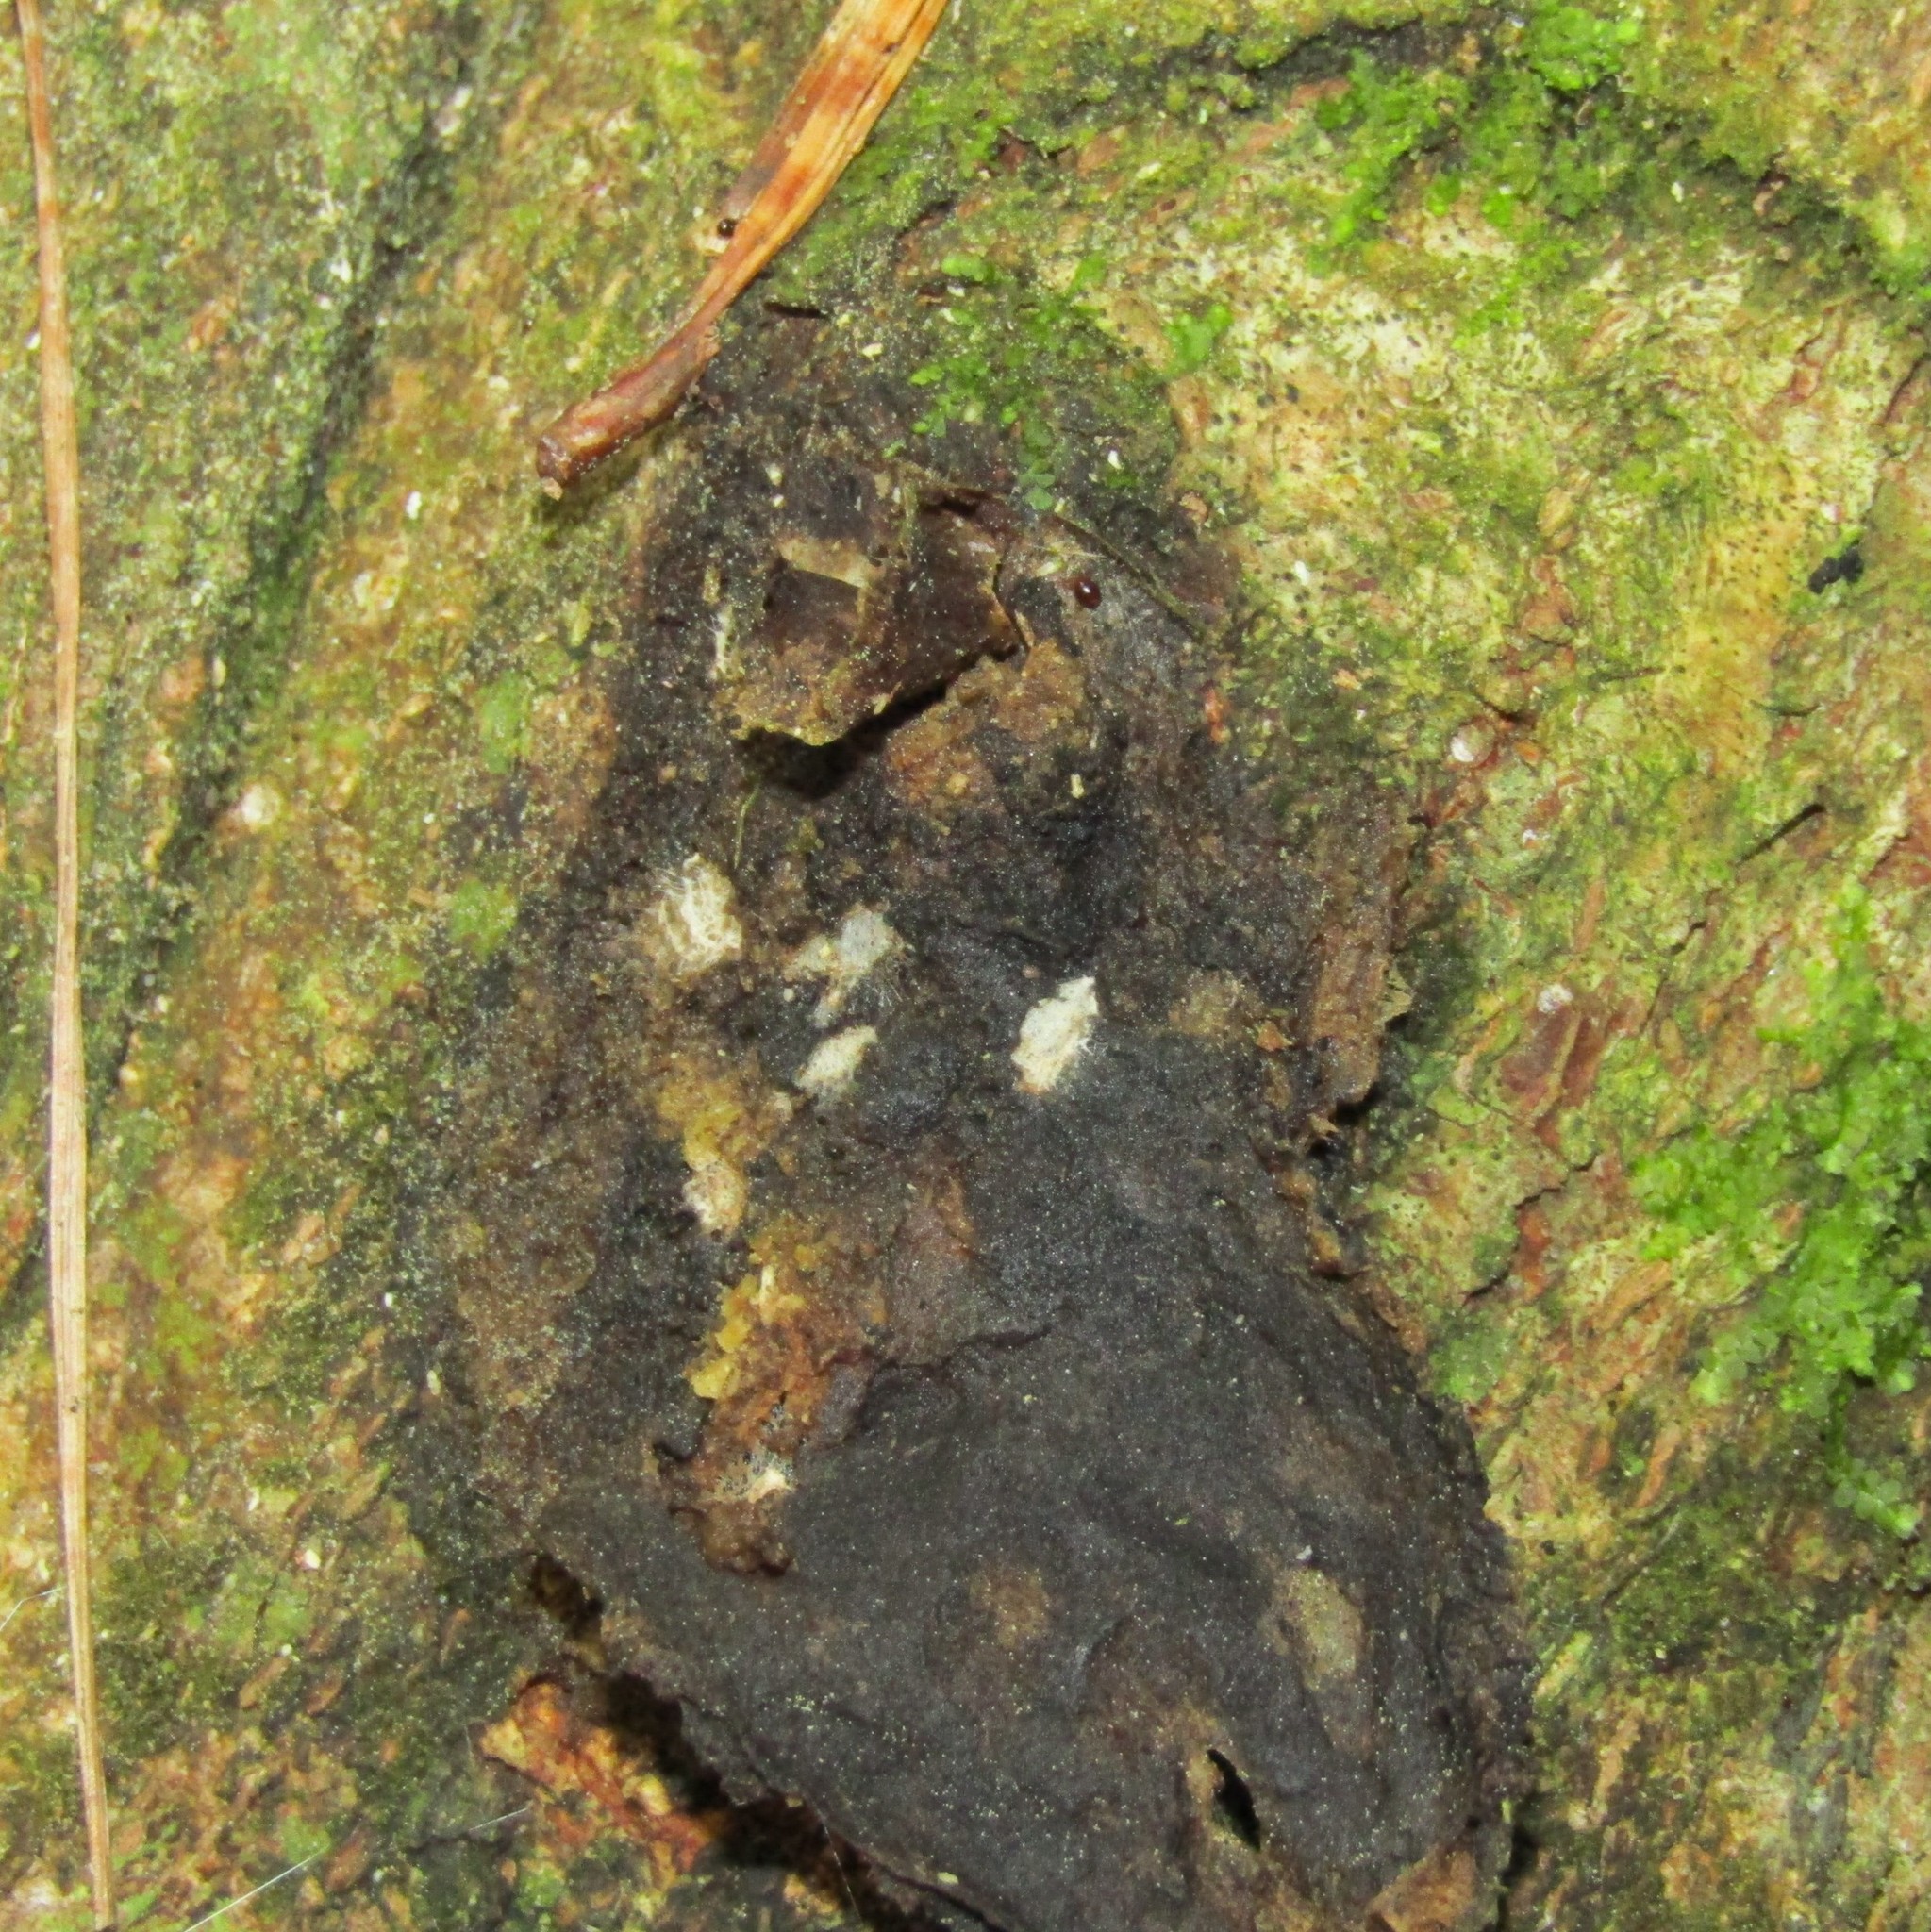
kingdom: Animalia
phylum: Arthropoda
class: Insecta
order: Lepidoptera
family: Hepialidae
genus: Aenetus
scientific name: Aenetus virescens
